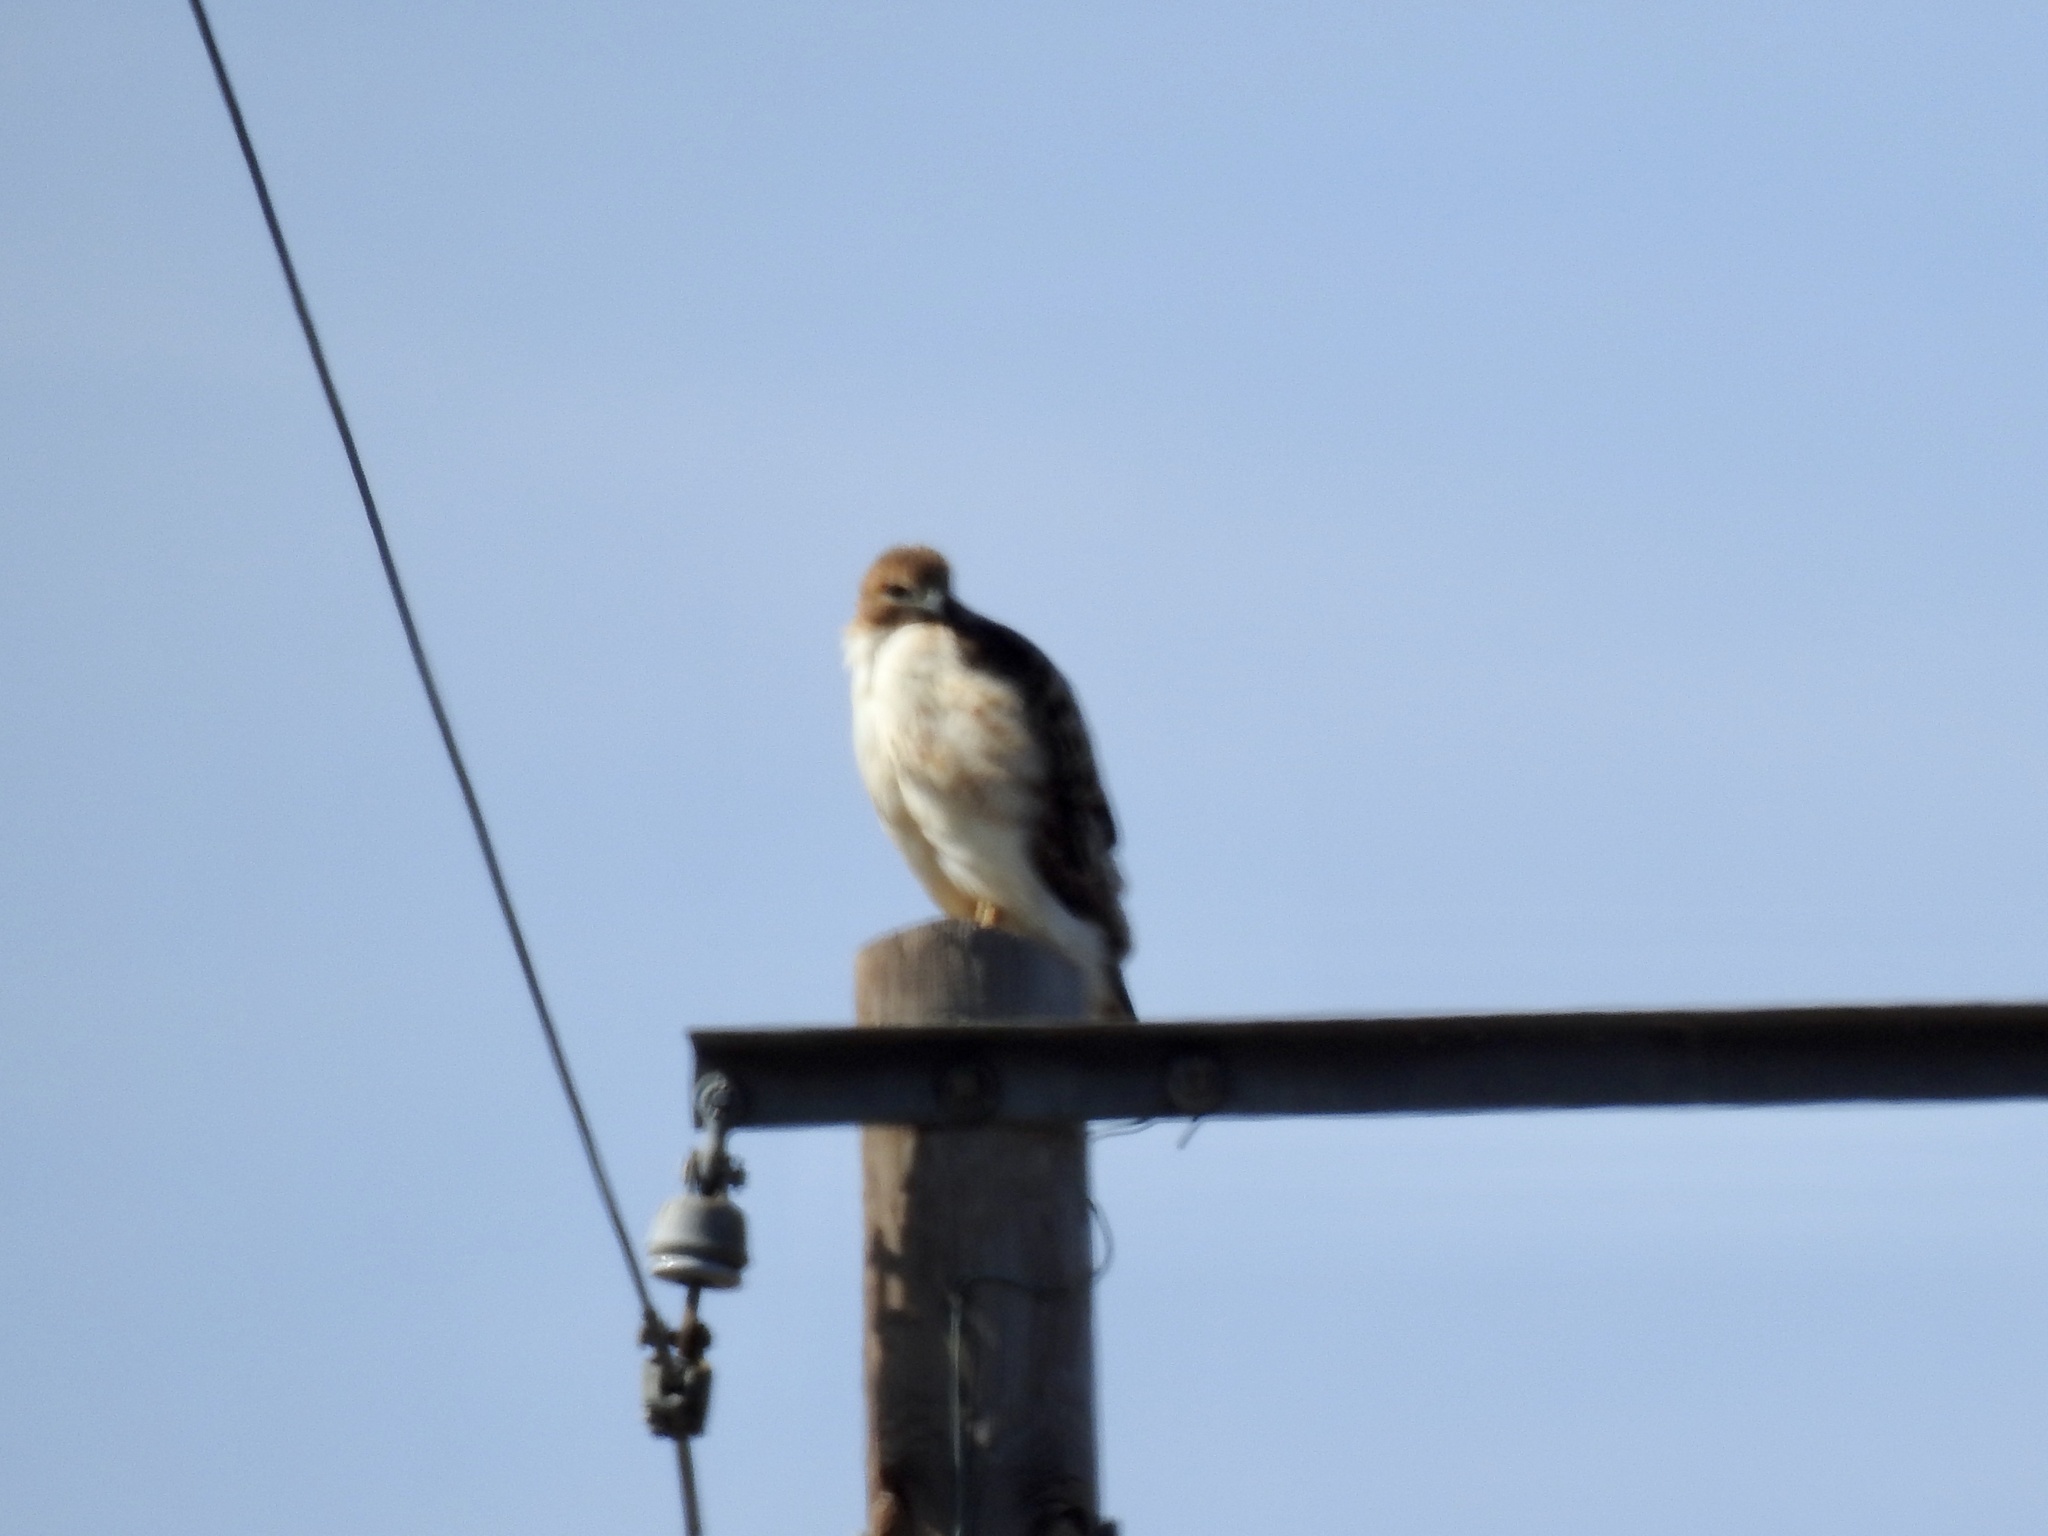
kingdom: Animalia
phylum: Chordata
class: Aves
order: Accipitriformes
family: Accipitridae
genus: Buteo
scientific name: Buteo jamaicensis
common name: Red-tailed hawk
